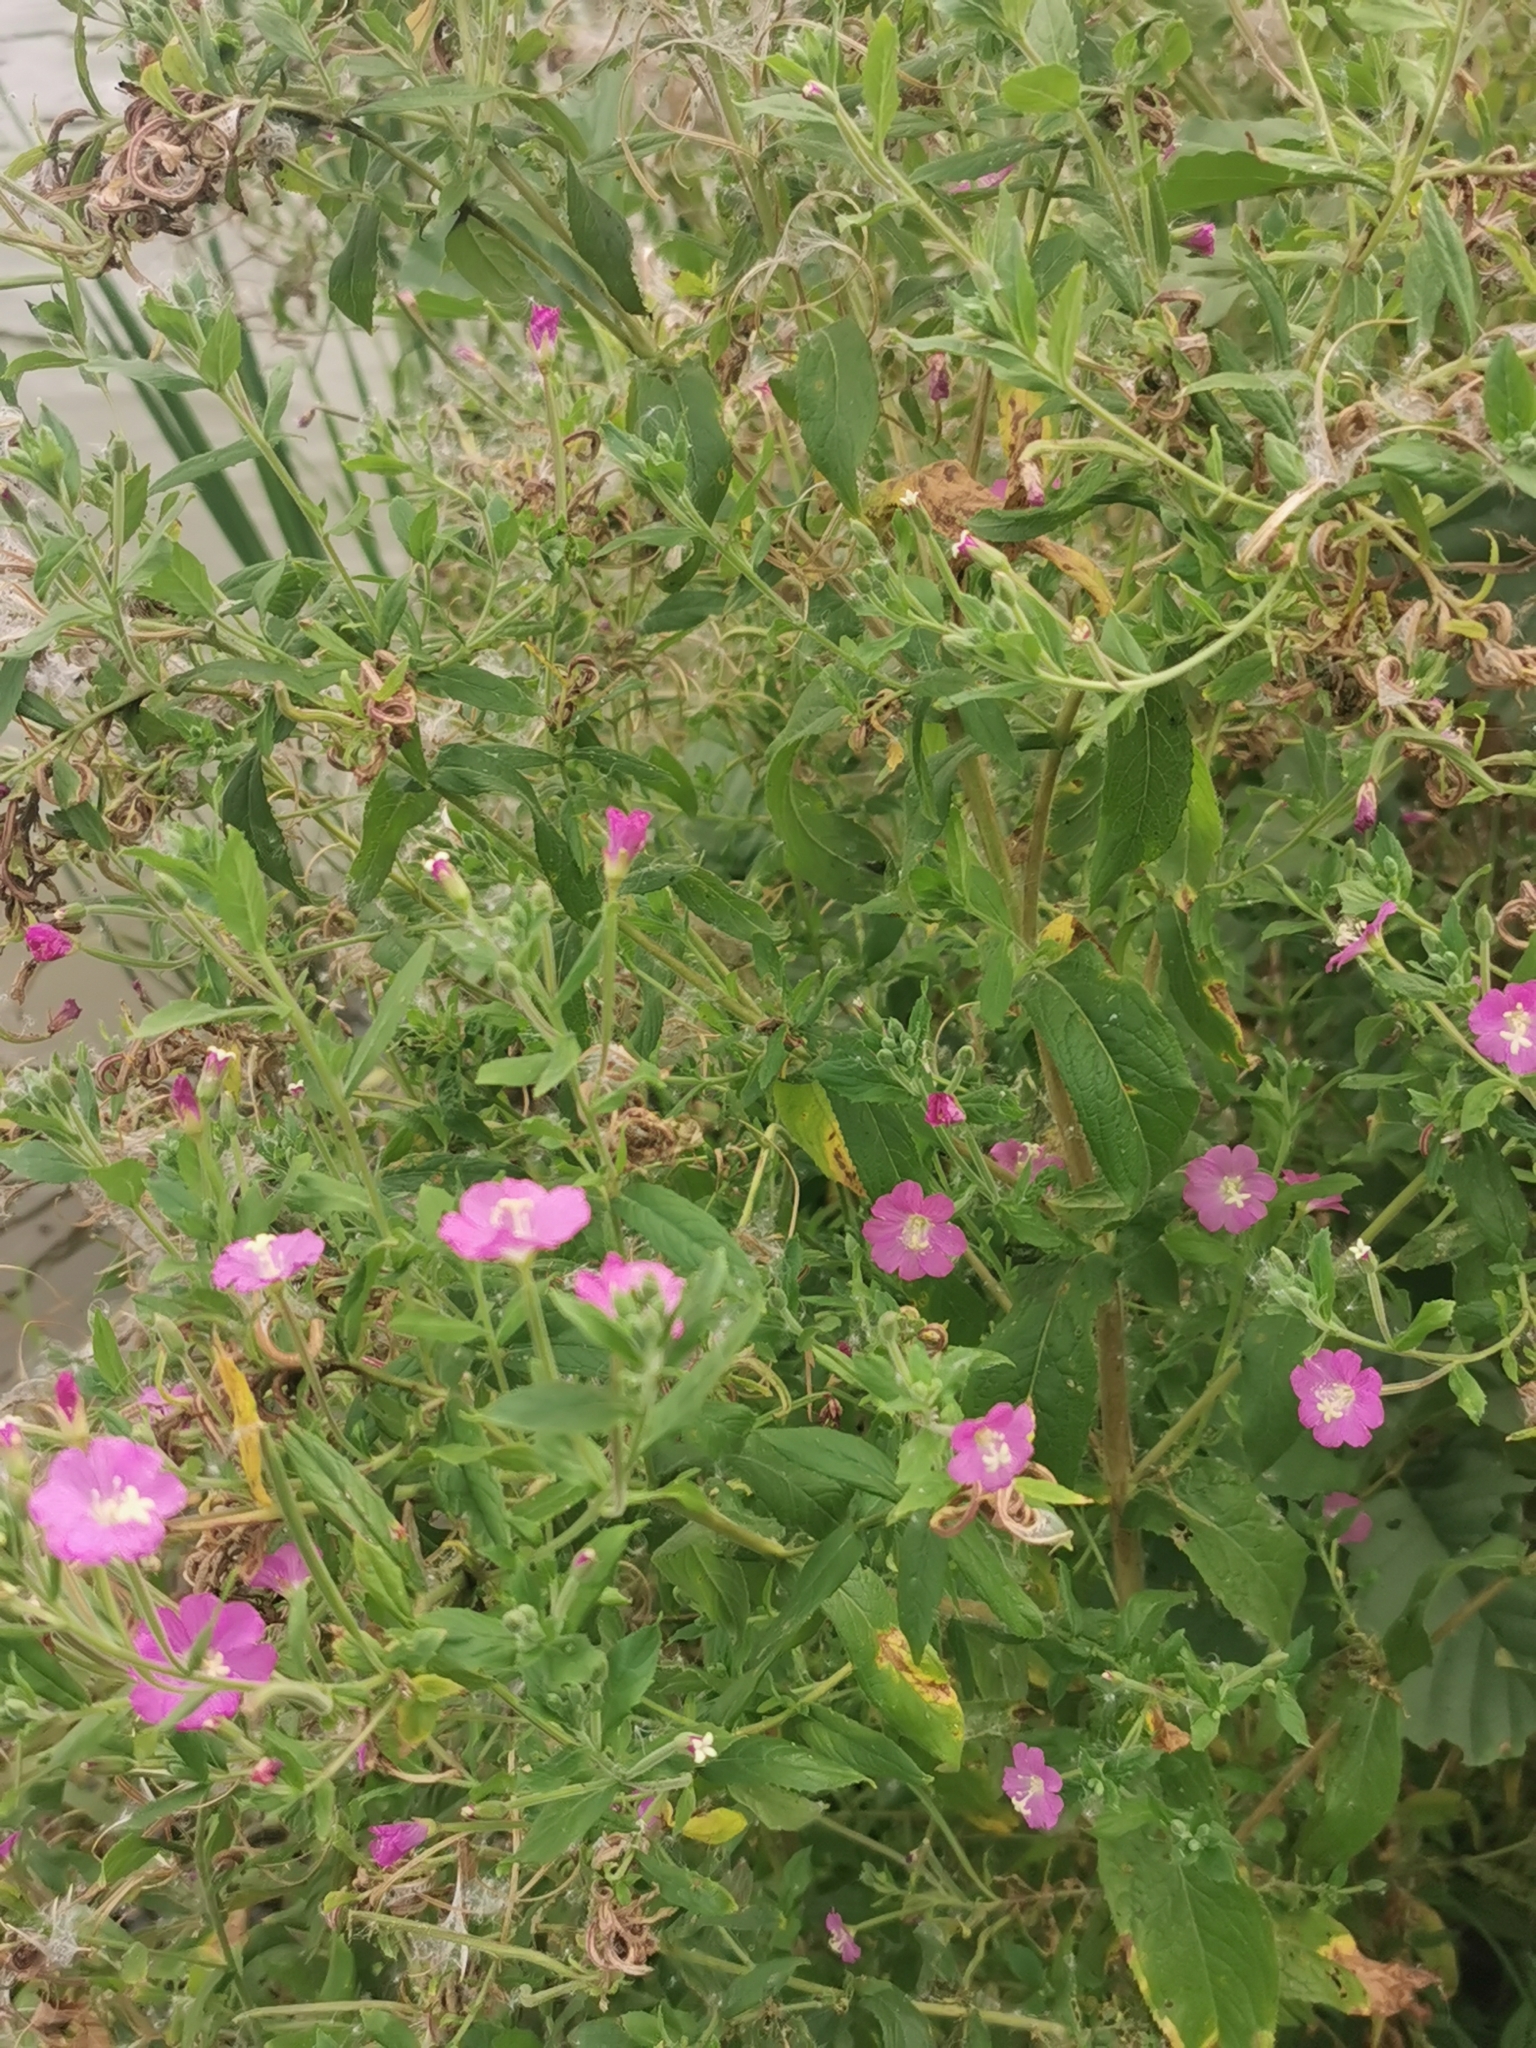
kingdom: Plantae
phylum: Tracheophyta
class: Magnoliopsida
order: Myrtales
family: Onagraceae
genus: Epilobium
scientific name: Epilobium hirsutum
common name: Great willowherb
